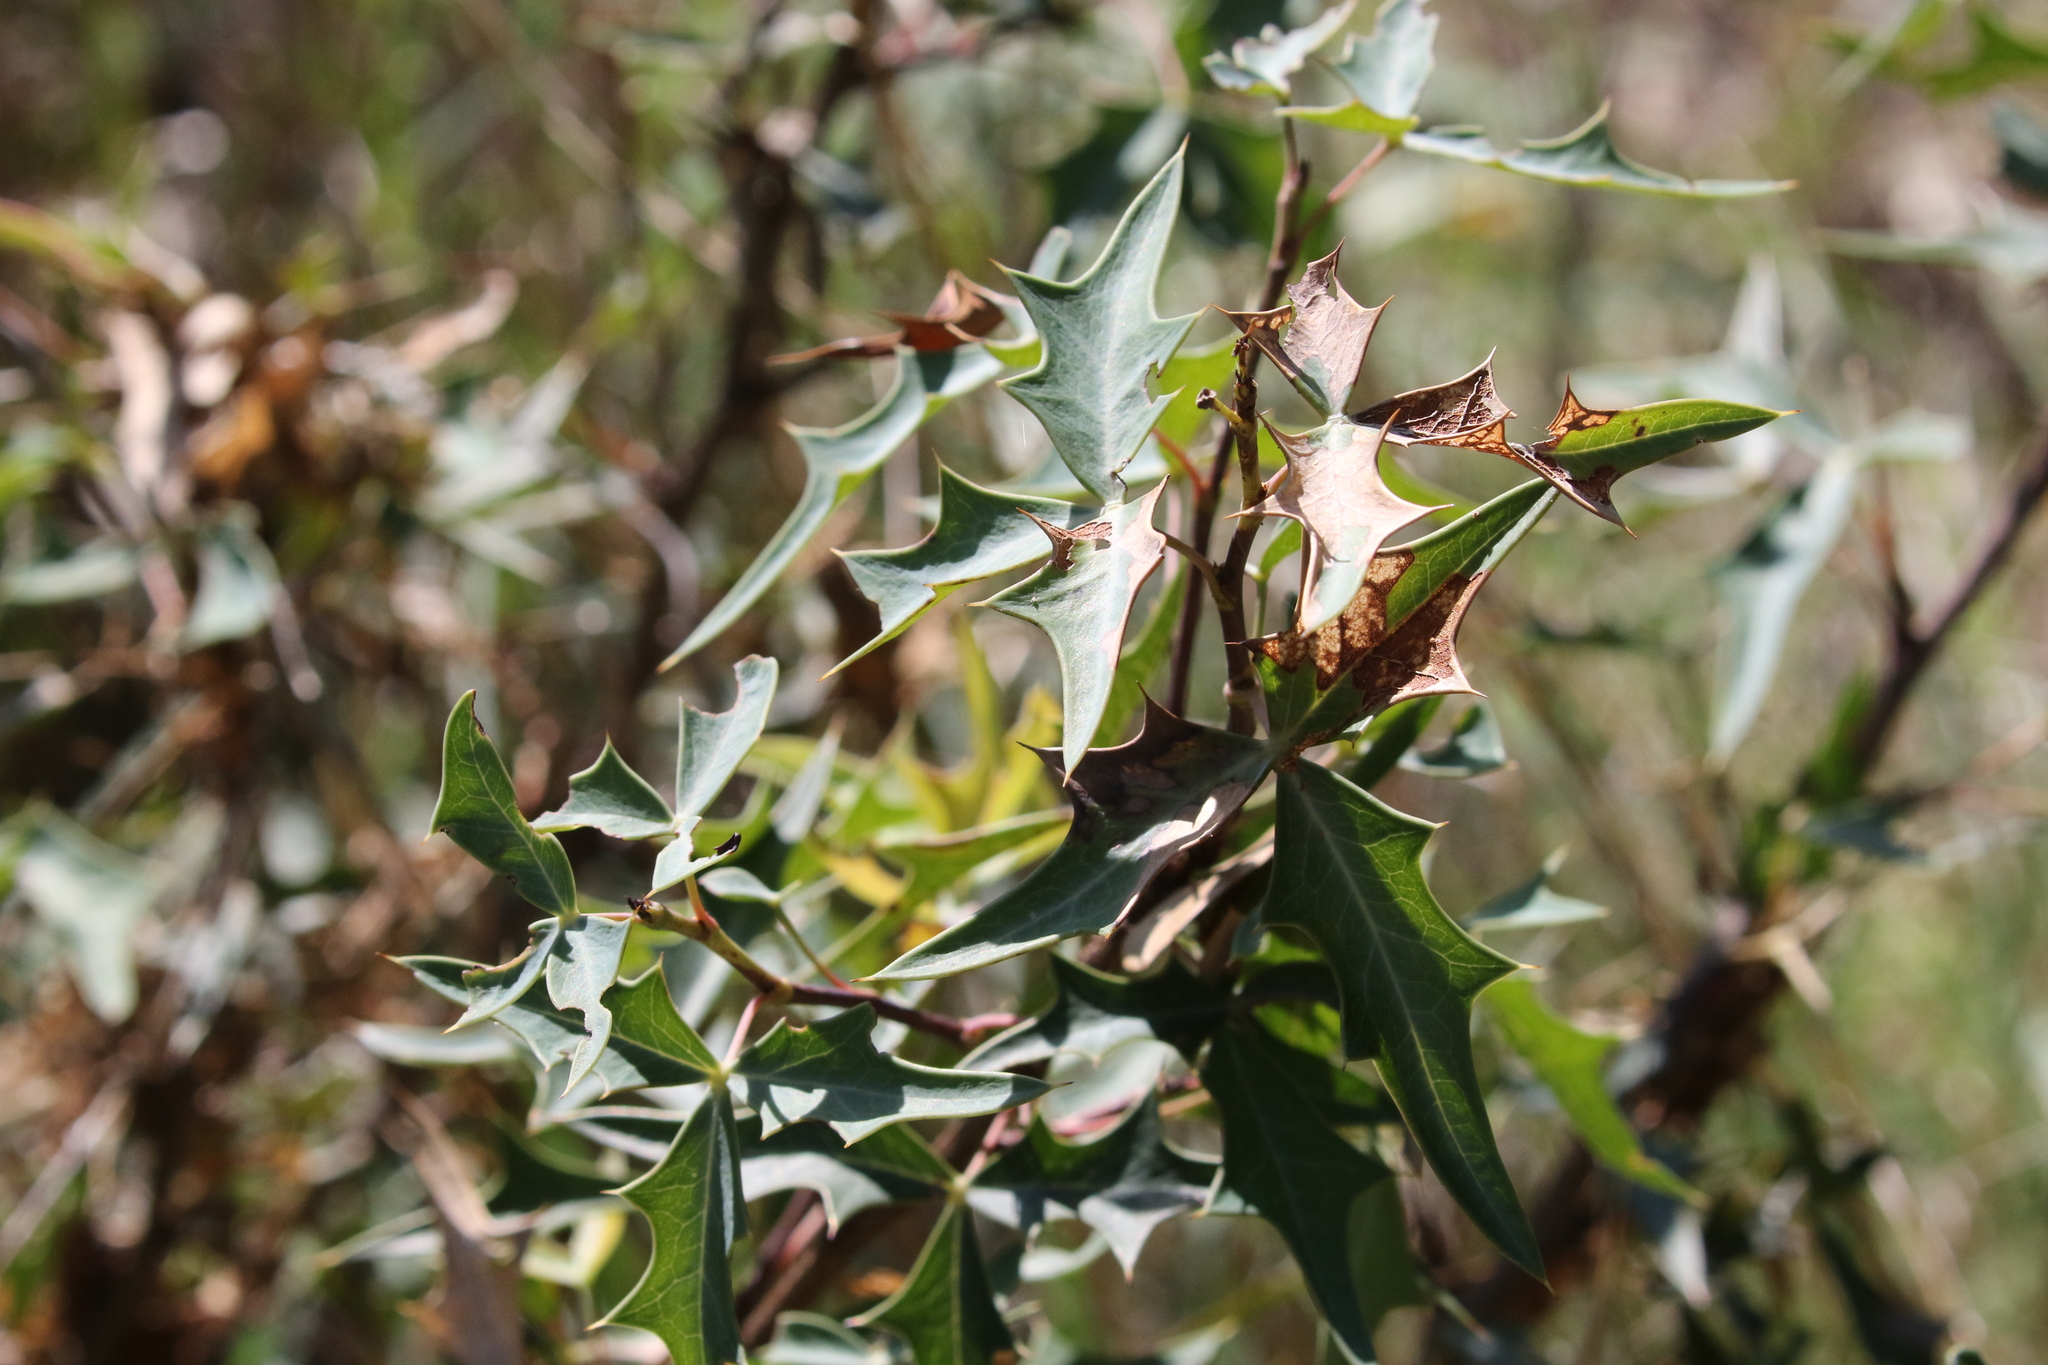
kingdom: Plantae
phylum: Tracheophyta
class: Magnoliopsida
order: Ranunculales
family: Berberidaceae
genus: Alloberberis
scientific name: Alloberberis trifoliolata
